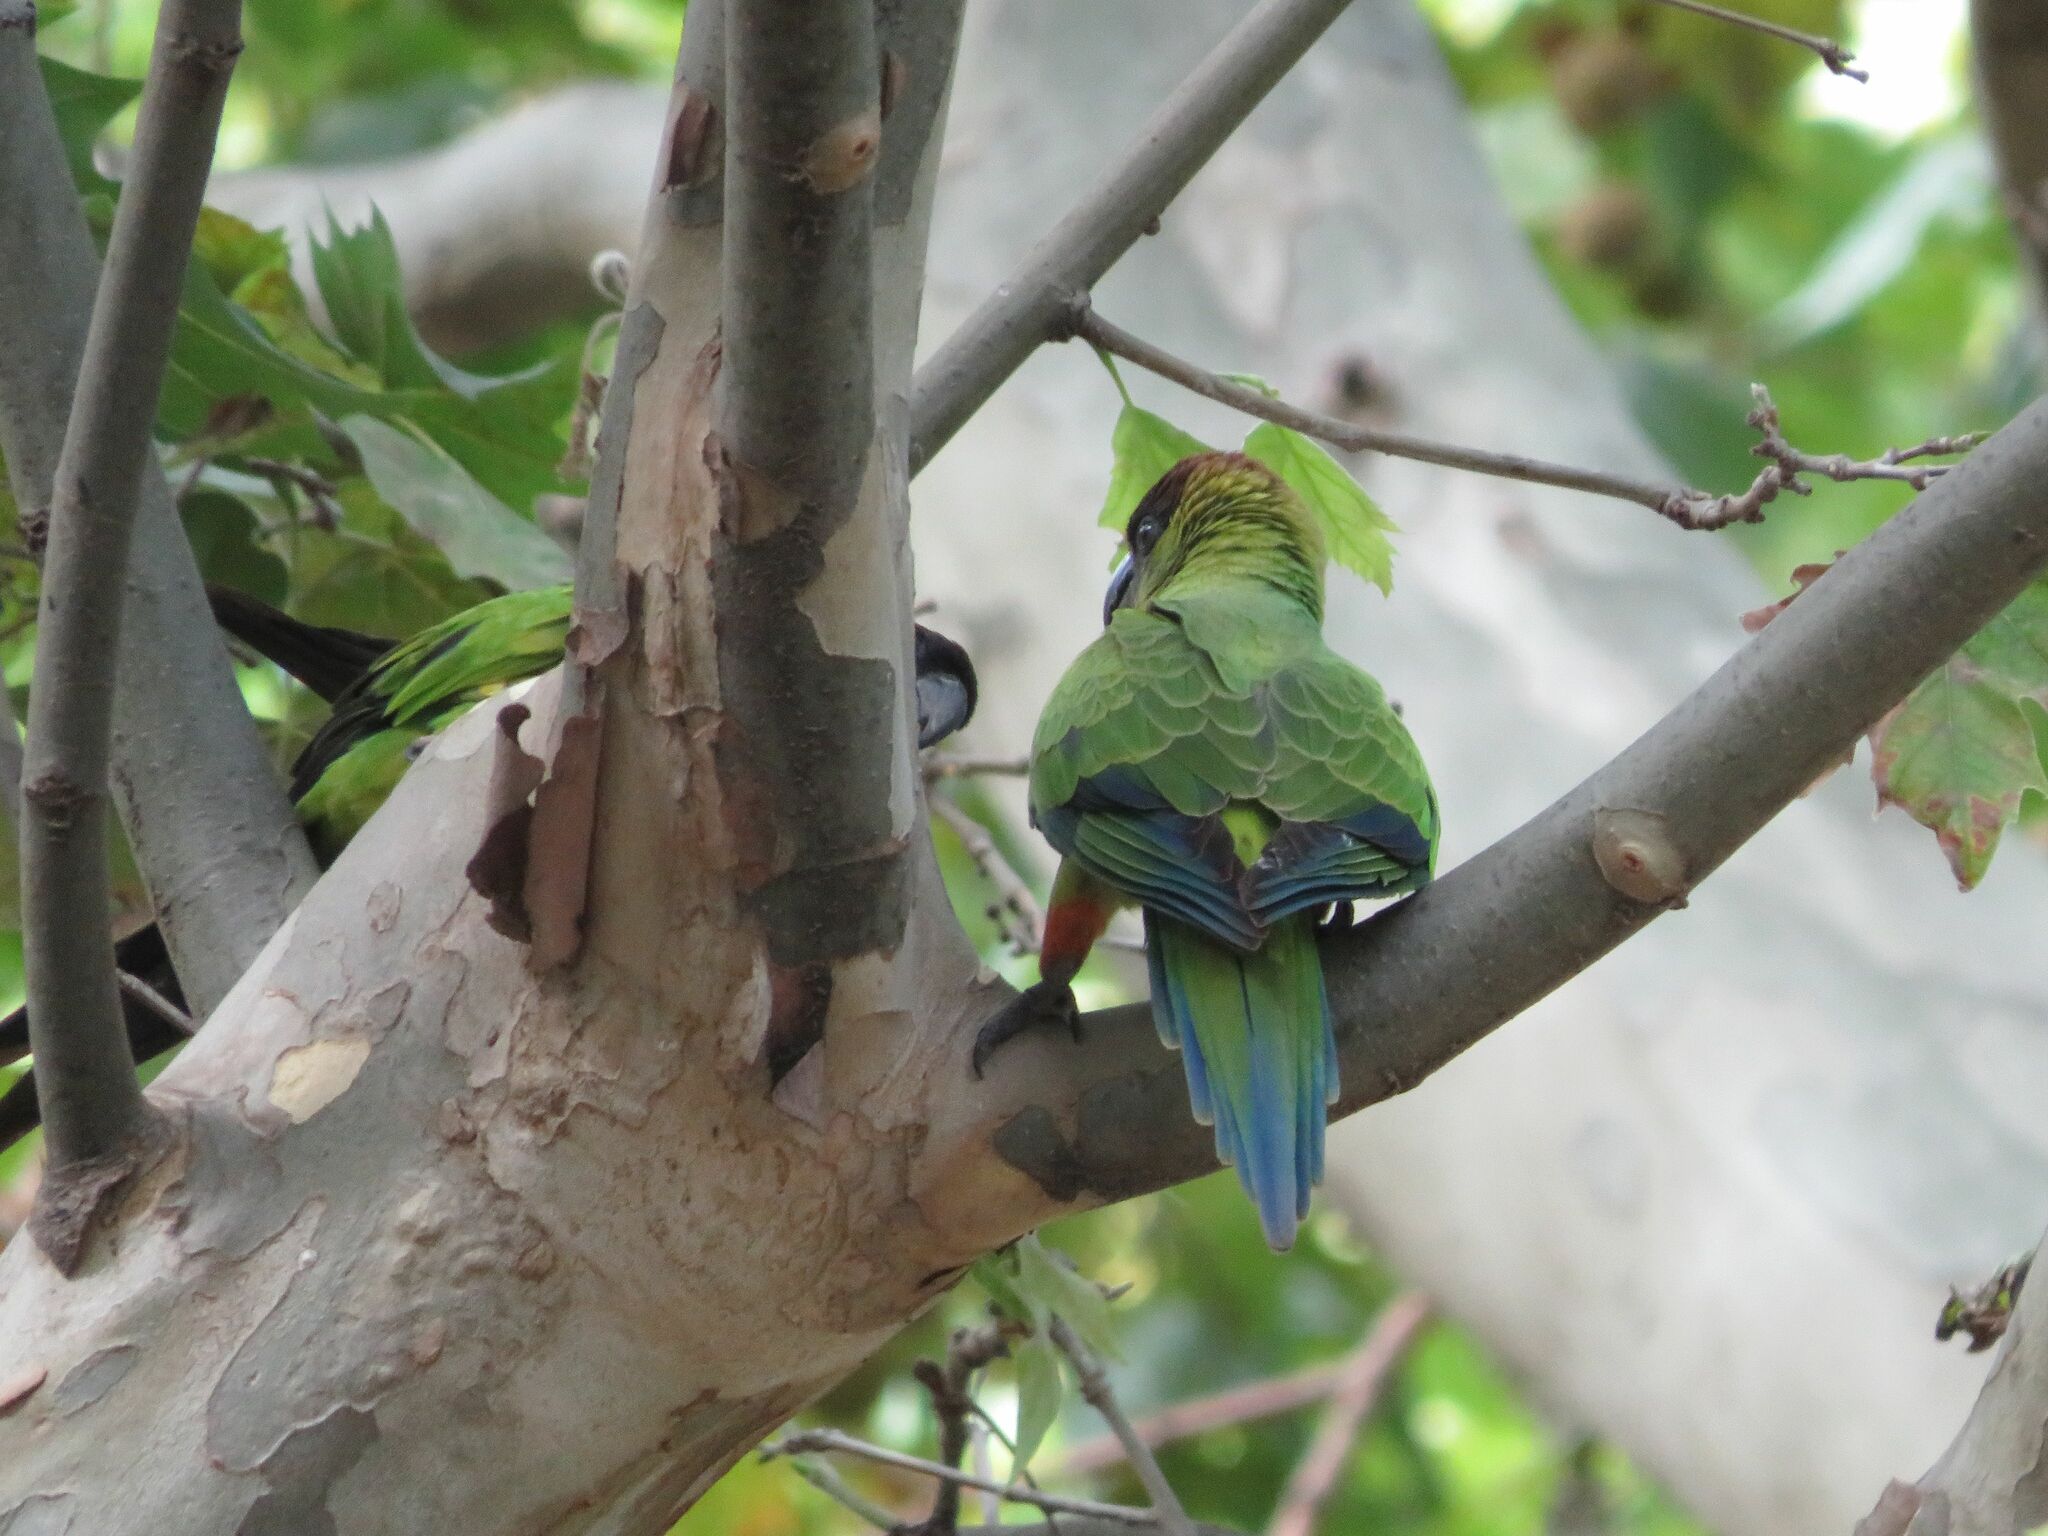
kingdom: Animalia
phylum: Chordata
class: Aves
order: Psittaciformes
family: Psittacidae
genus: Nandayus
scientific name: Nandayus nenday
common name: Nanday parakeet
